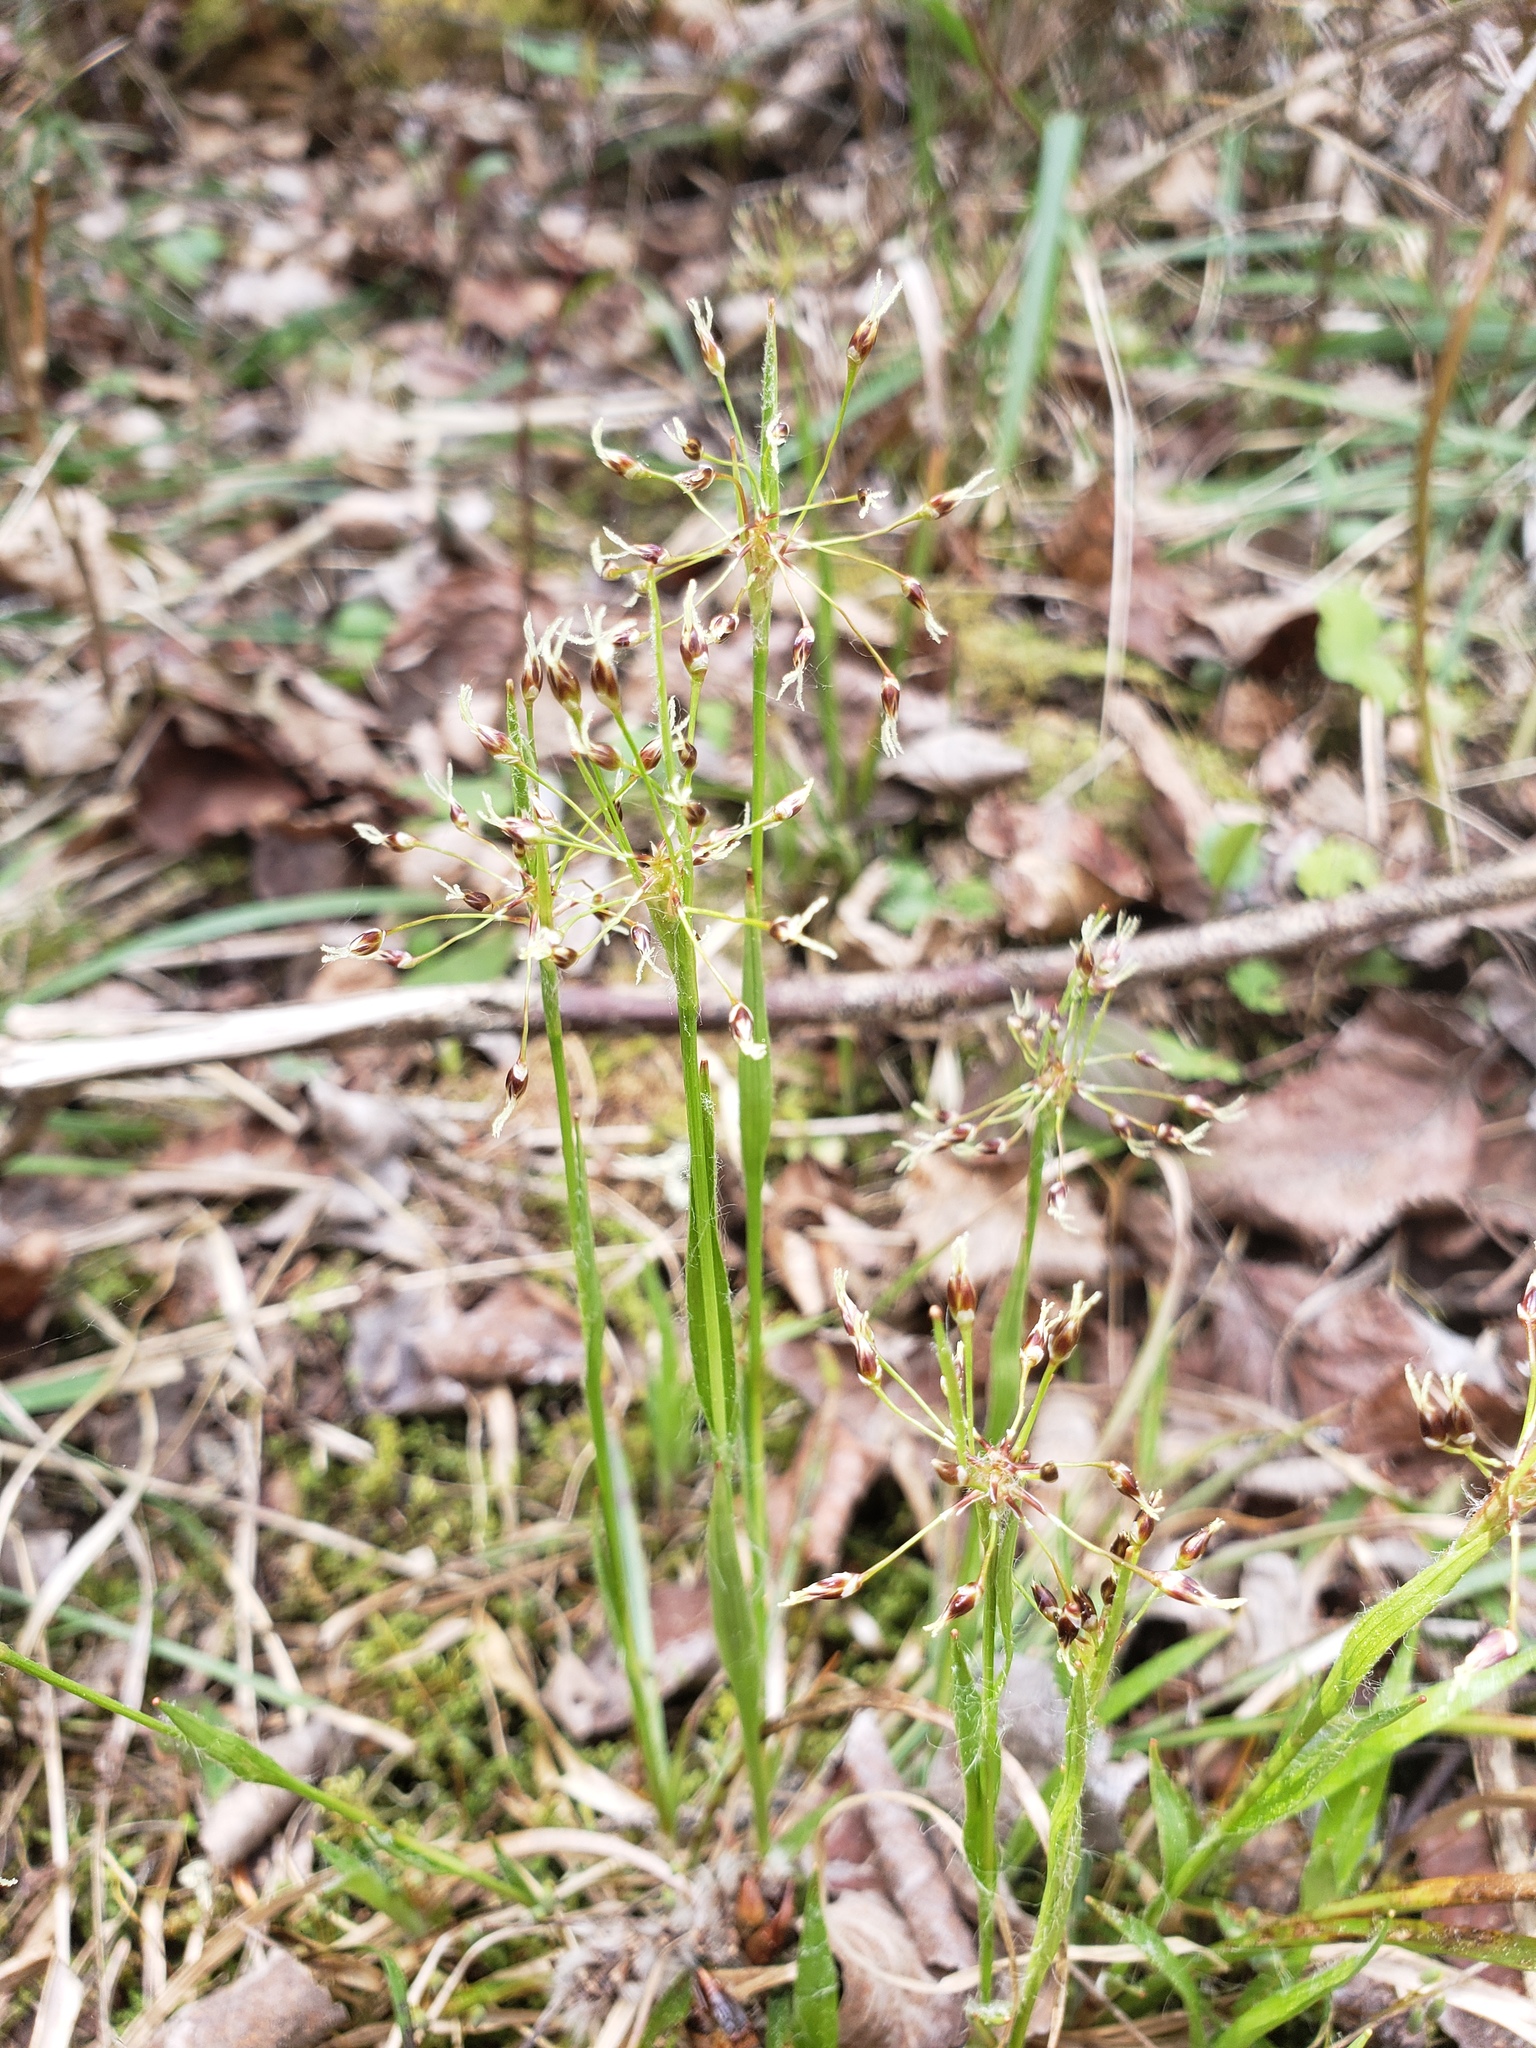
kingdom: Plantae
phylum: Tracheophyta
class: Liliopsida
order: Poales
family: Juncaceae
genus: Luzula
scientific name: Luzula acuminata
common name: Hairy woodrush
